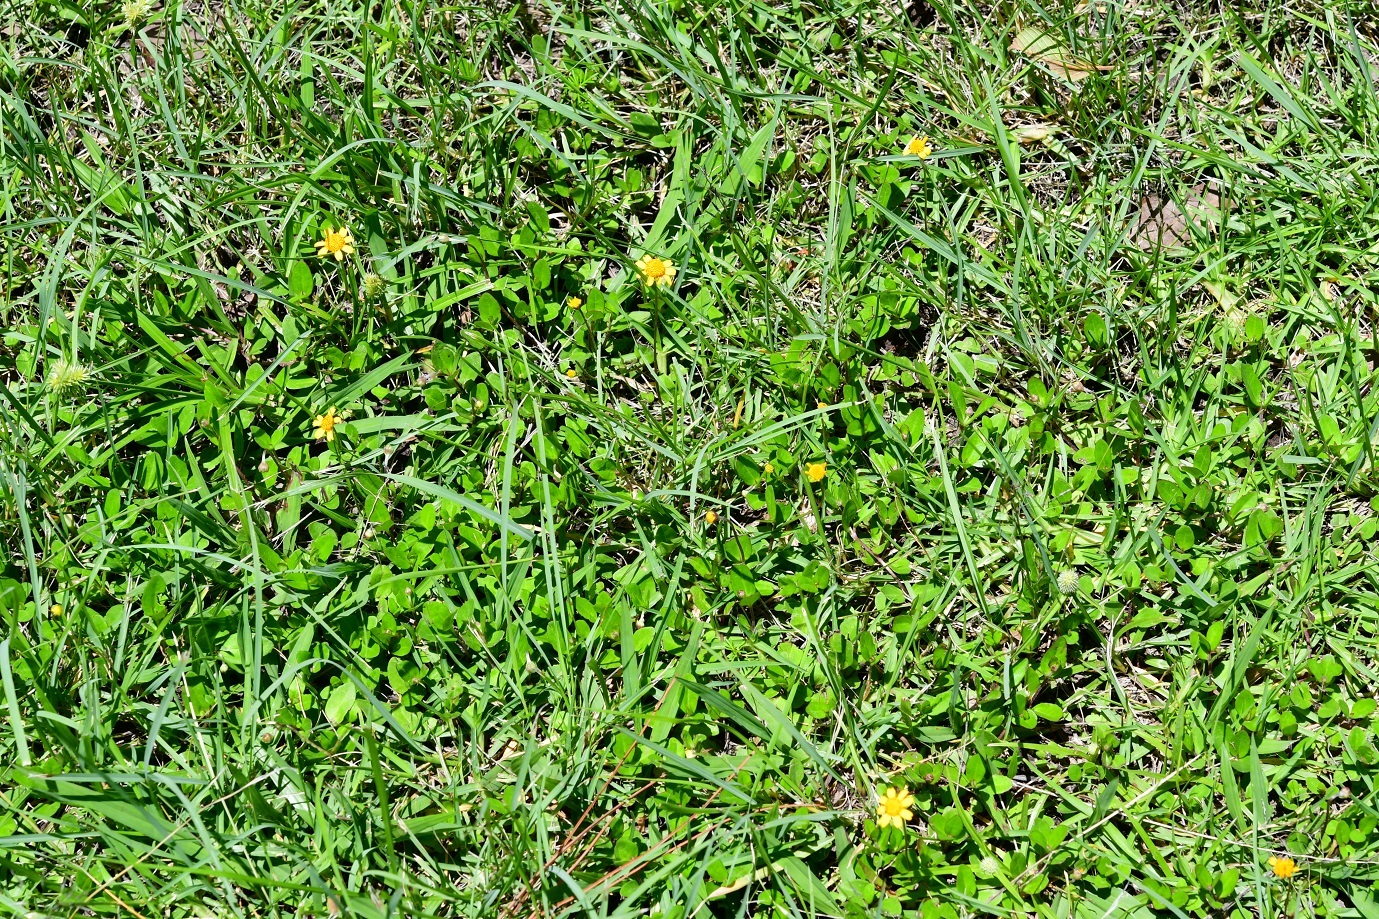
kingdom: Plantae
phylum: Tracheophyta
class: Magnoliopsida
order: Asterales
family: Asteraceae
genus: Acmella
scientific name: Acmella repens
